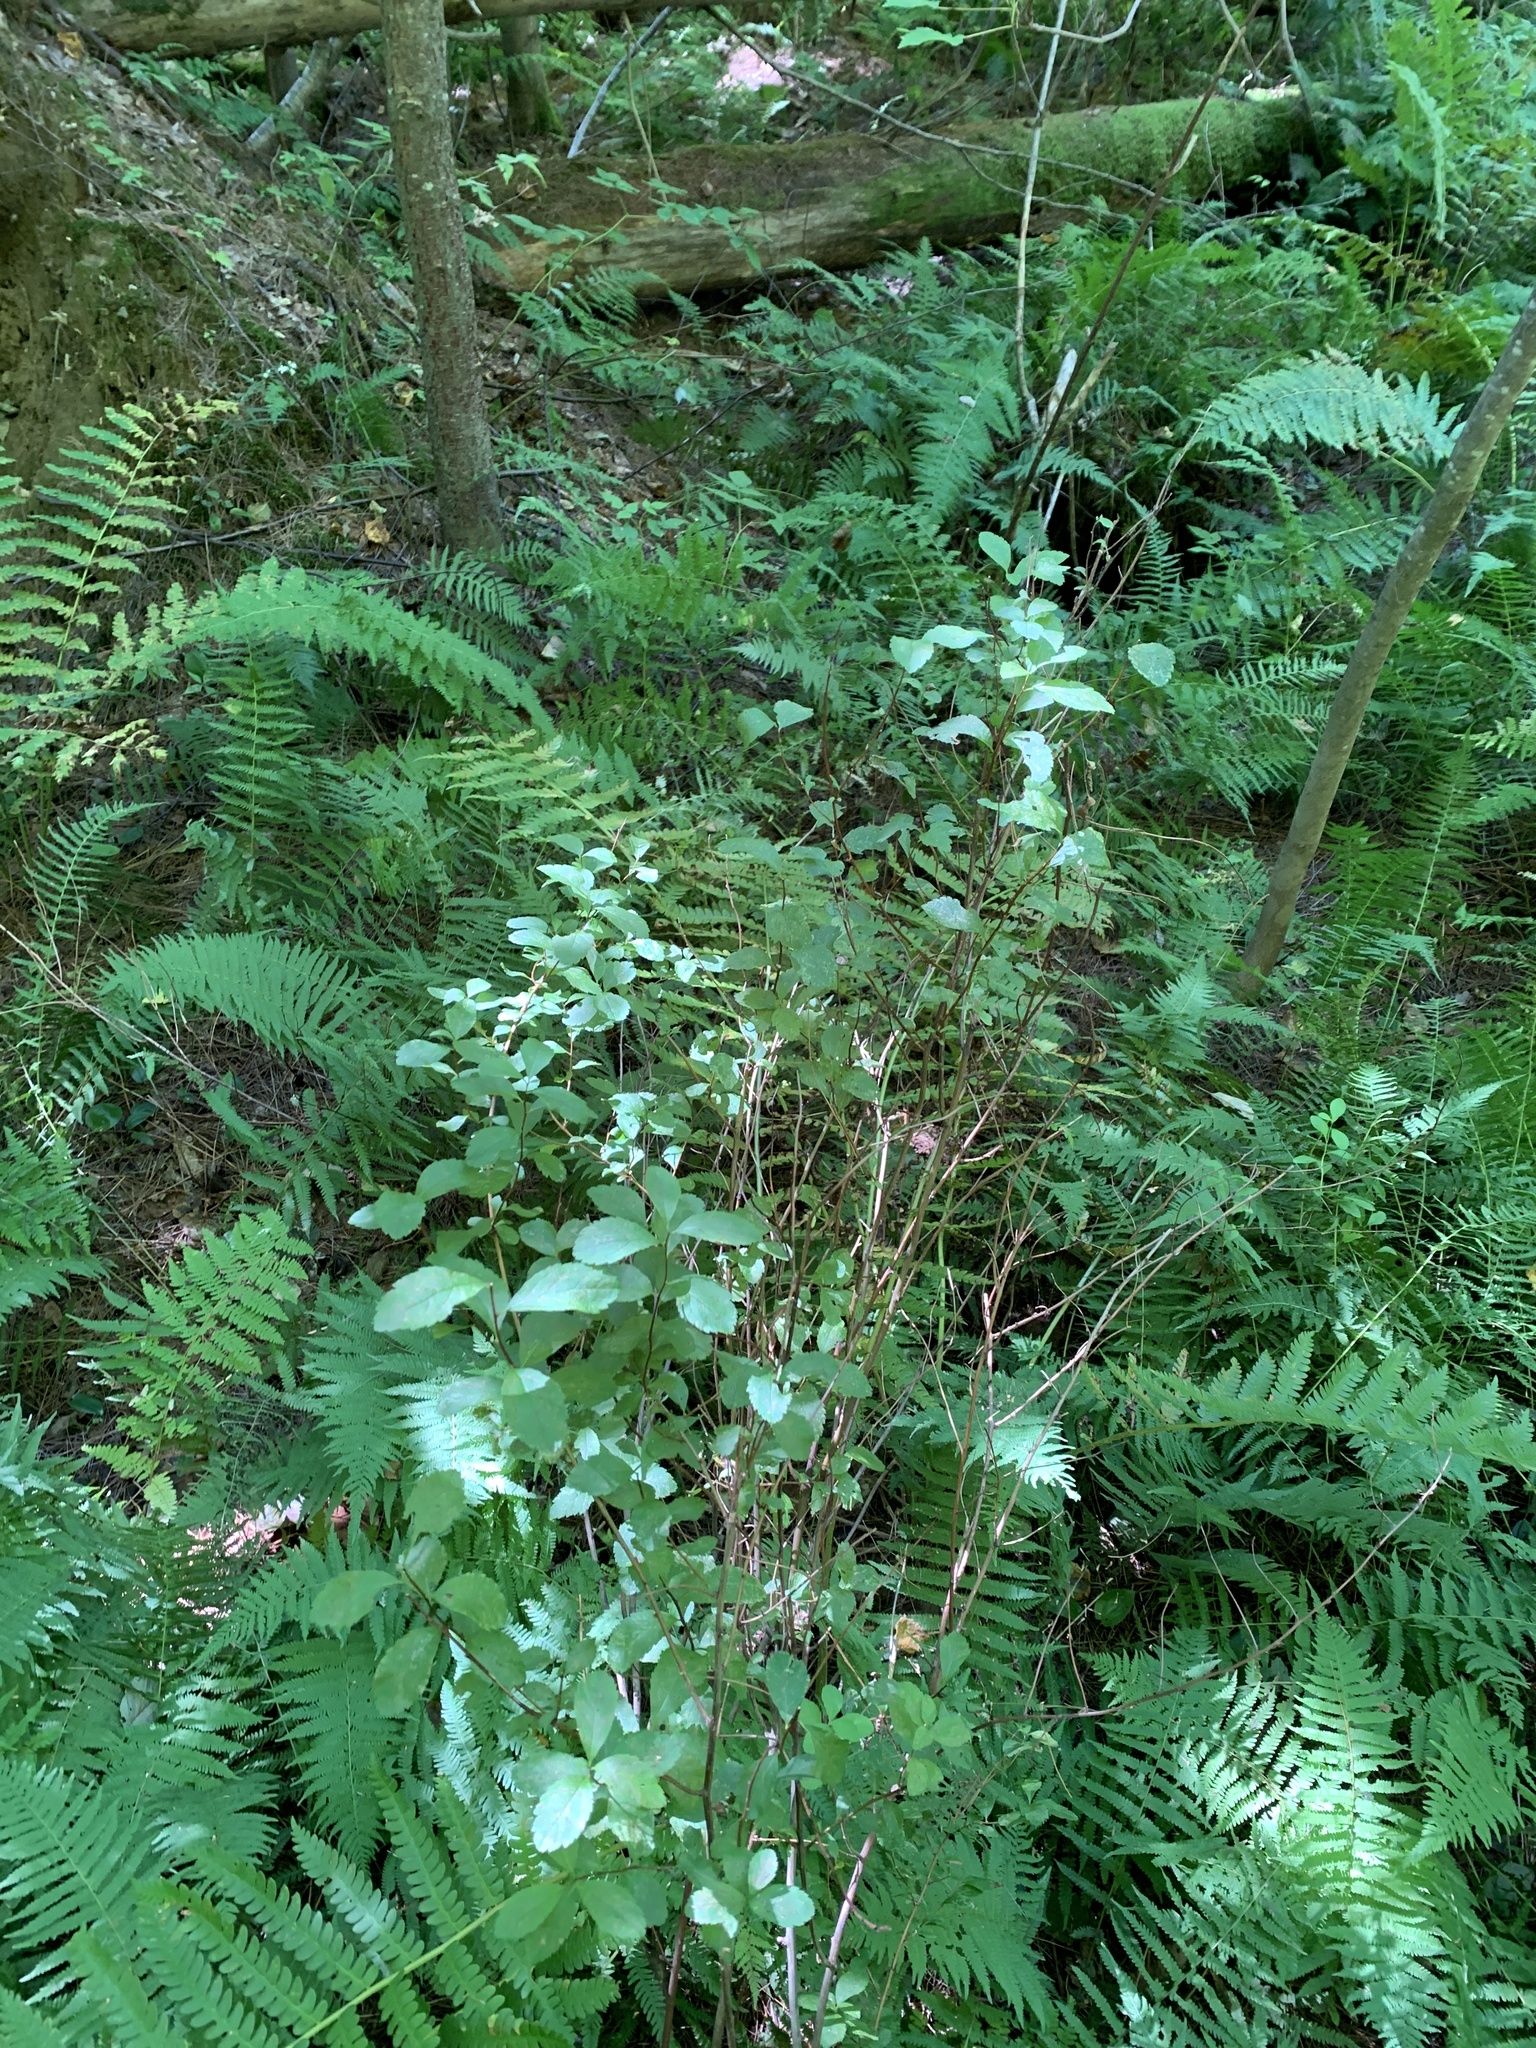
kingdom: Plantae
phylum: Tracheophyta
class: Magnoliopsida
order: Rosales
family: Rosaceae
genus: Spiraea
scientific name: Spiraea alba
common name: Pale bridewort
